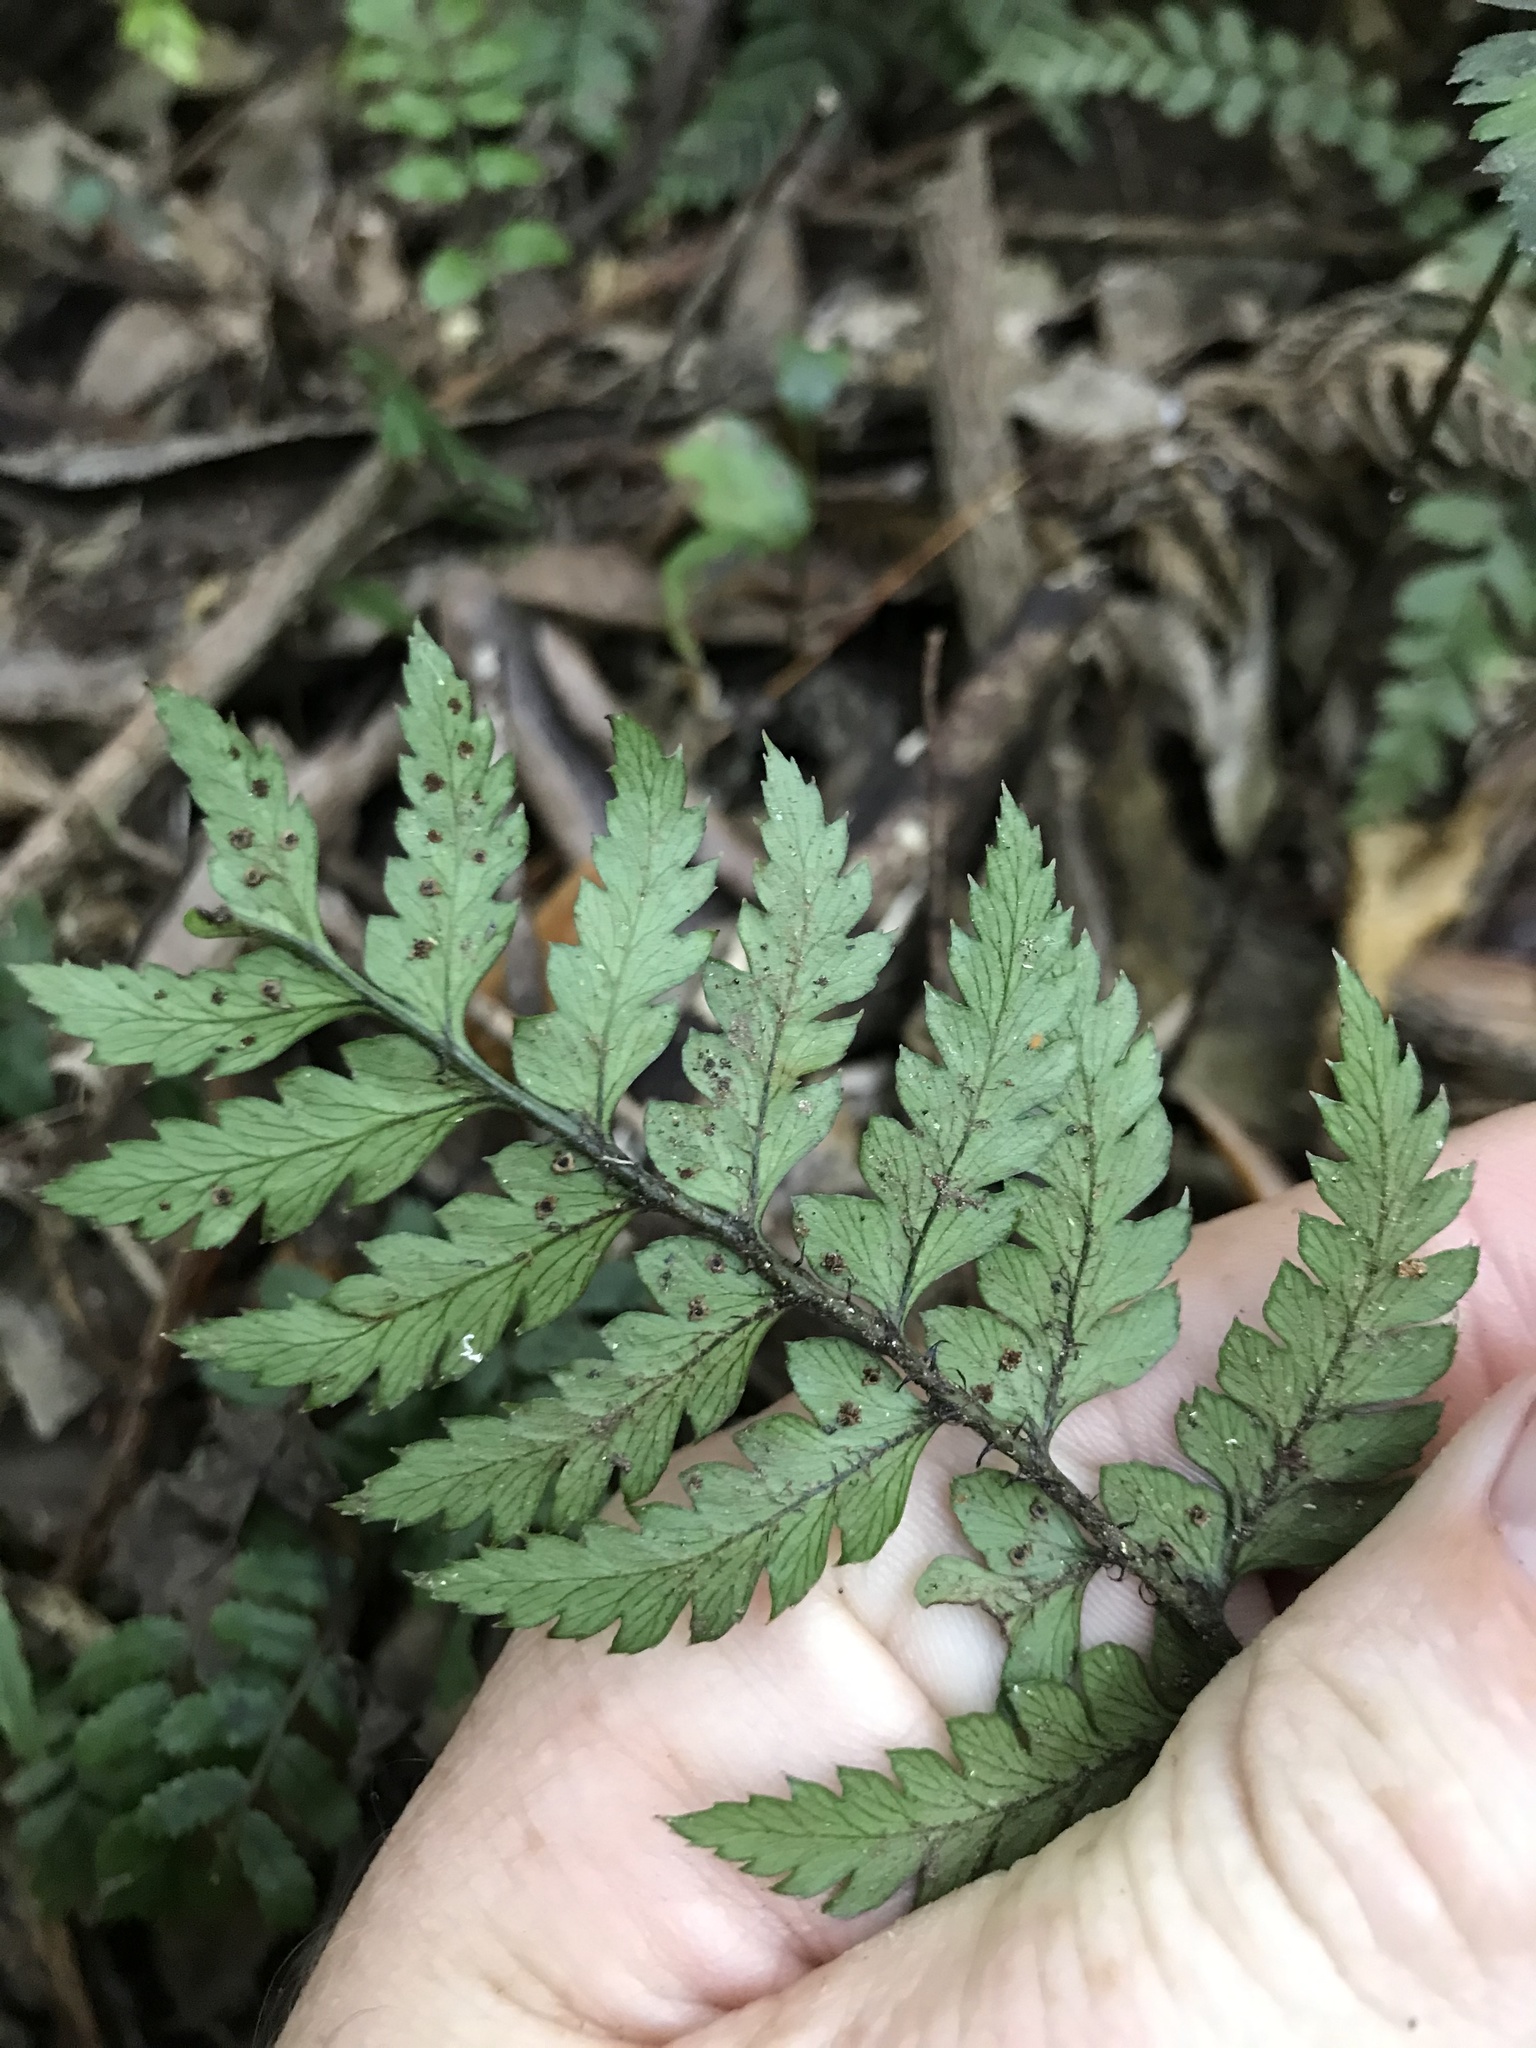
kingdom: Plantae
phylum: Tracheophyta
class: Polypodiopsida
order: Polypodiales
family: Dryopteridaceae
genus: Polystichum
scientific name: Polystichum neozelandicum
